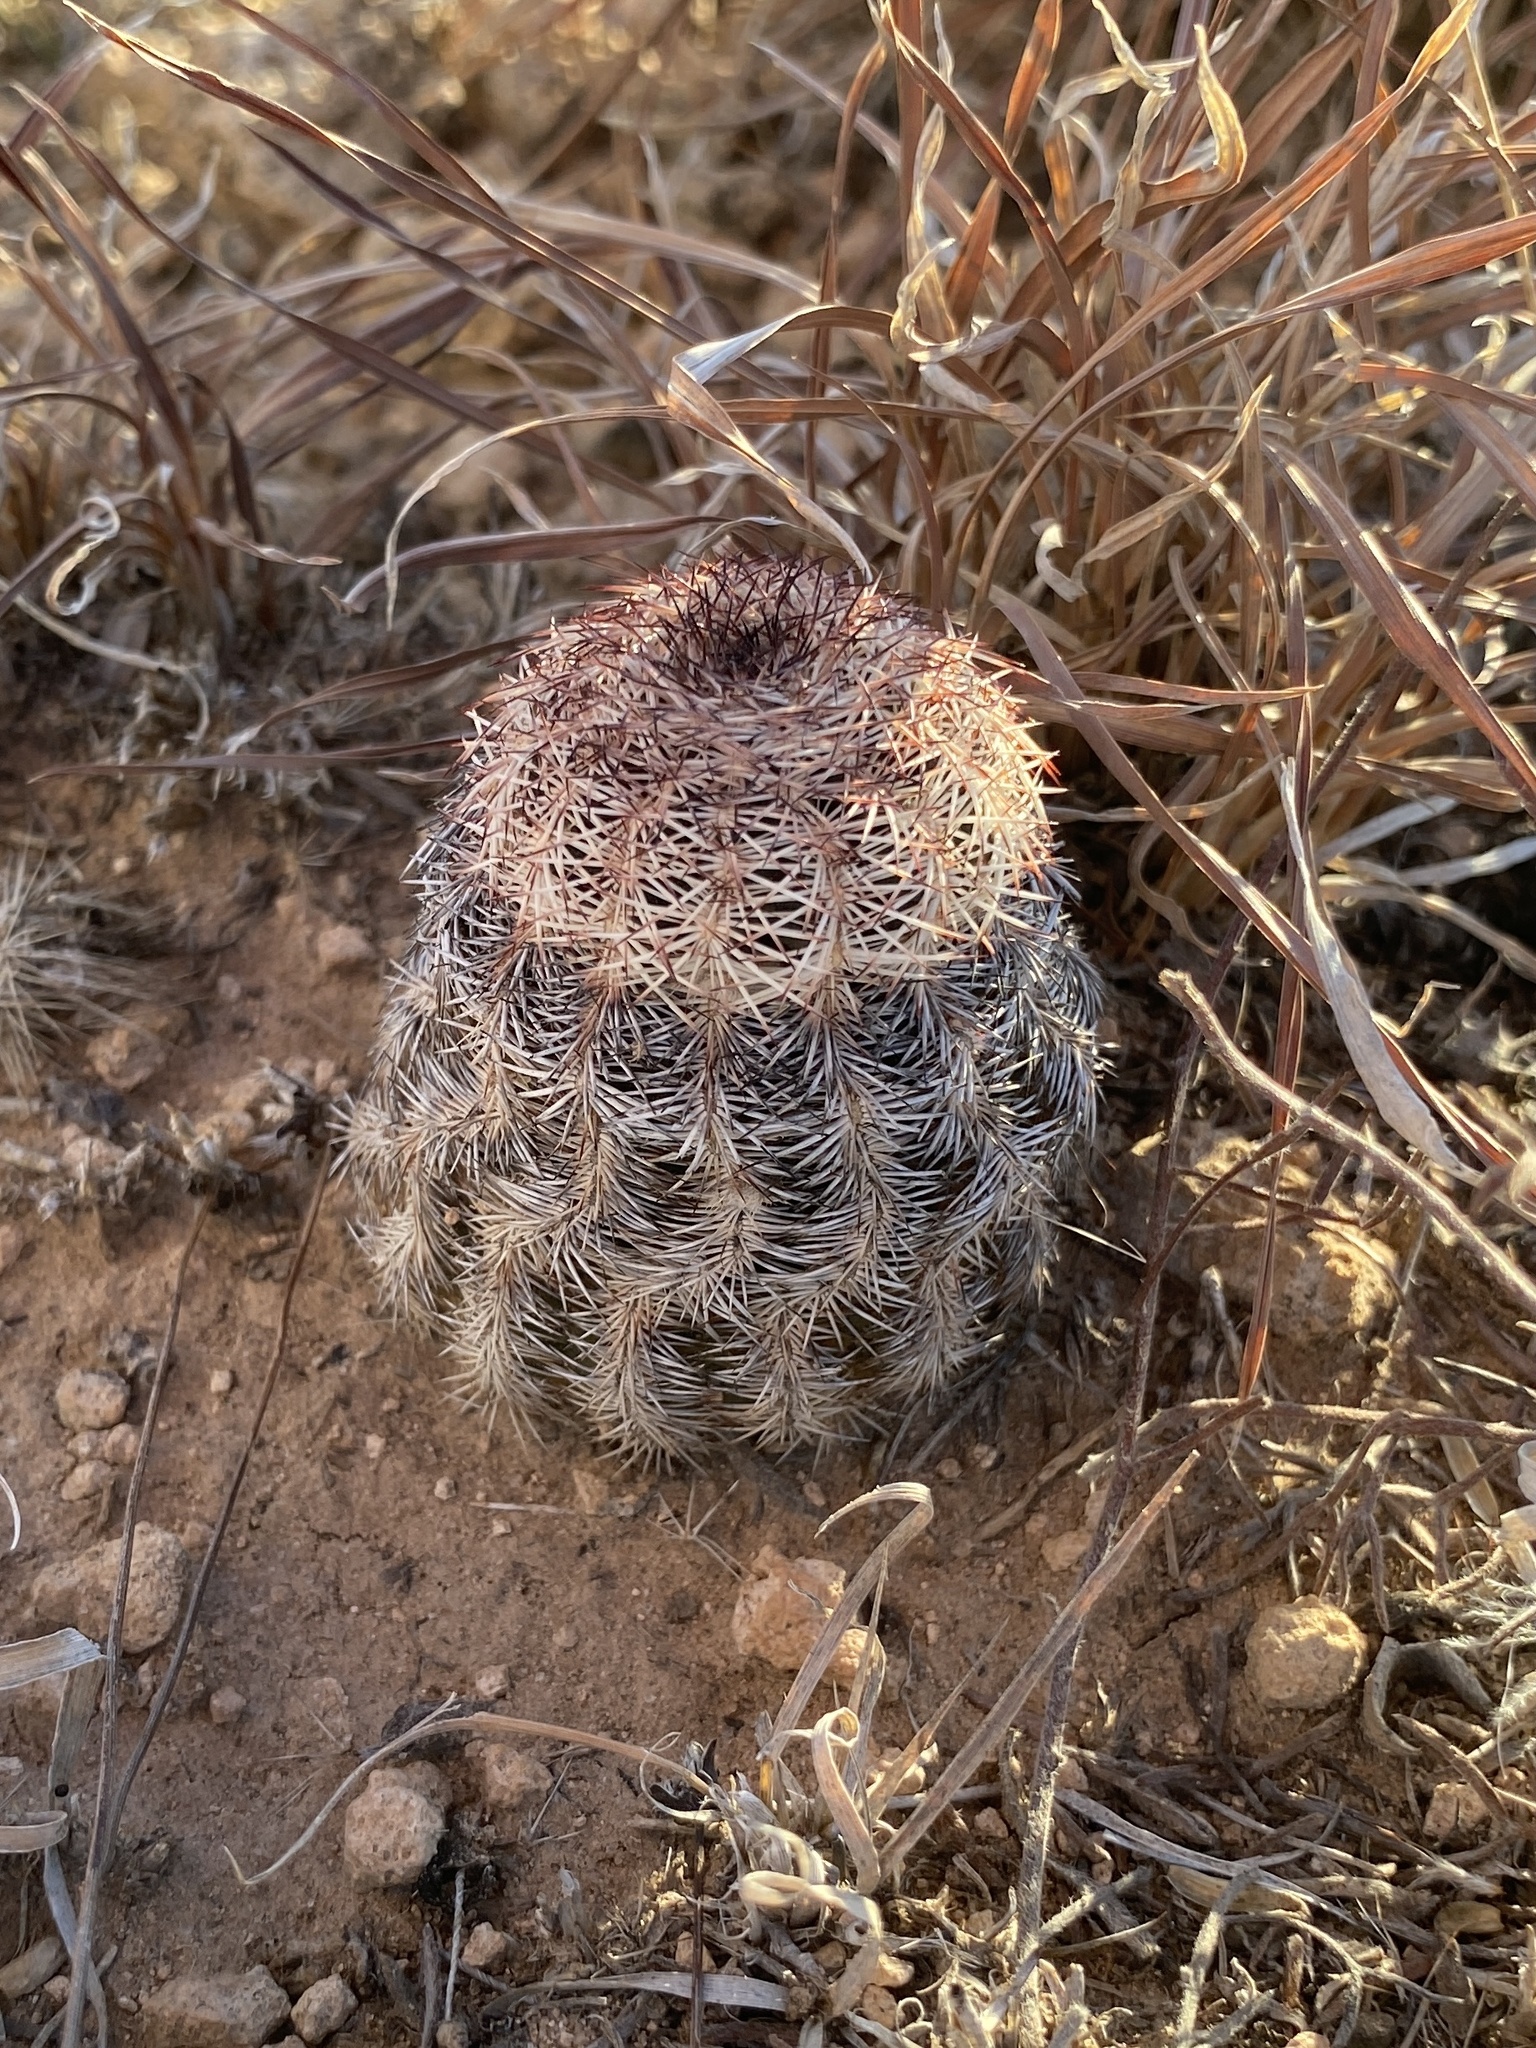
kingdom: Plantae
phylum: Tracheophyta
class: Magnoliopsida
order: Caryophyllales
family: Cactaceae
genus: Echinocereus
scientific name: Echinocereus reichenbachii
